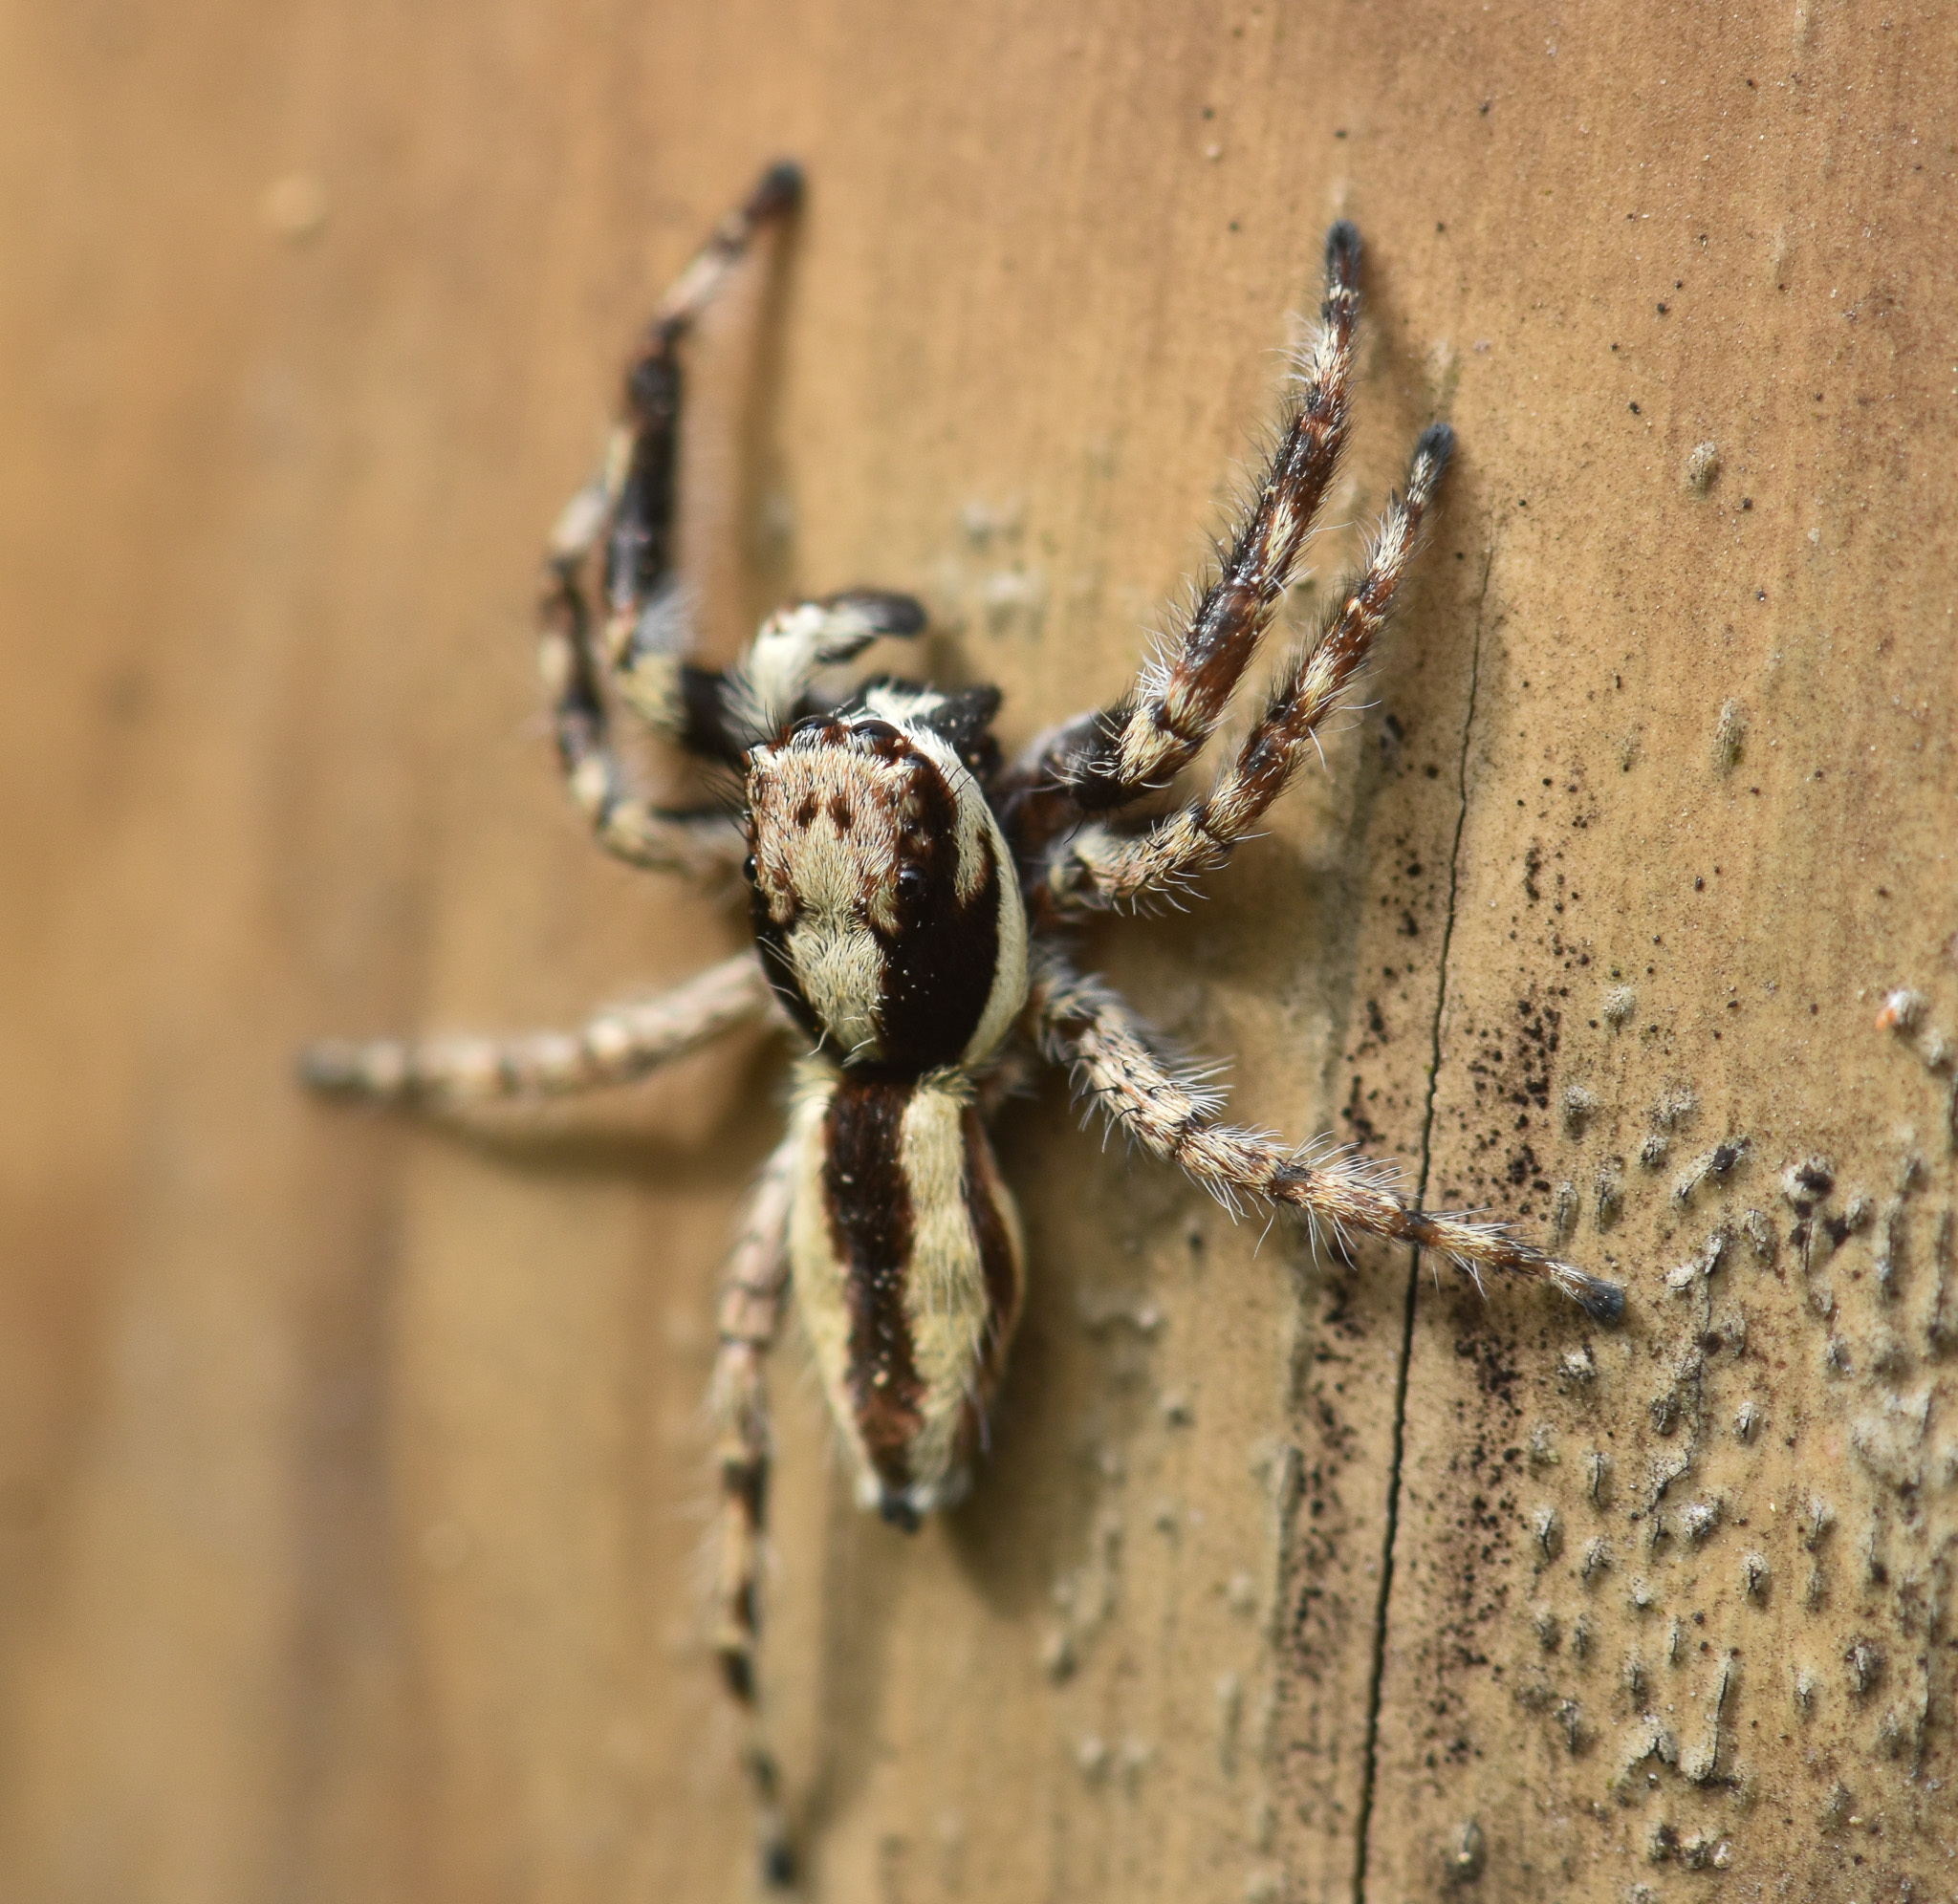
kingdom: Animalia
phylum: Arthropoda
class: Arachnida
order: Araneae
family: Salticidae
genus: Menemerus
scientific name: Menemerus bivittatus
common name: Gray wall jumper
